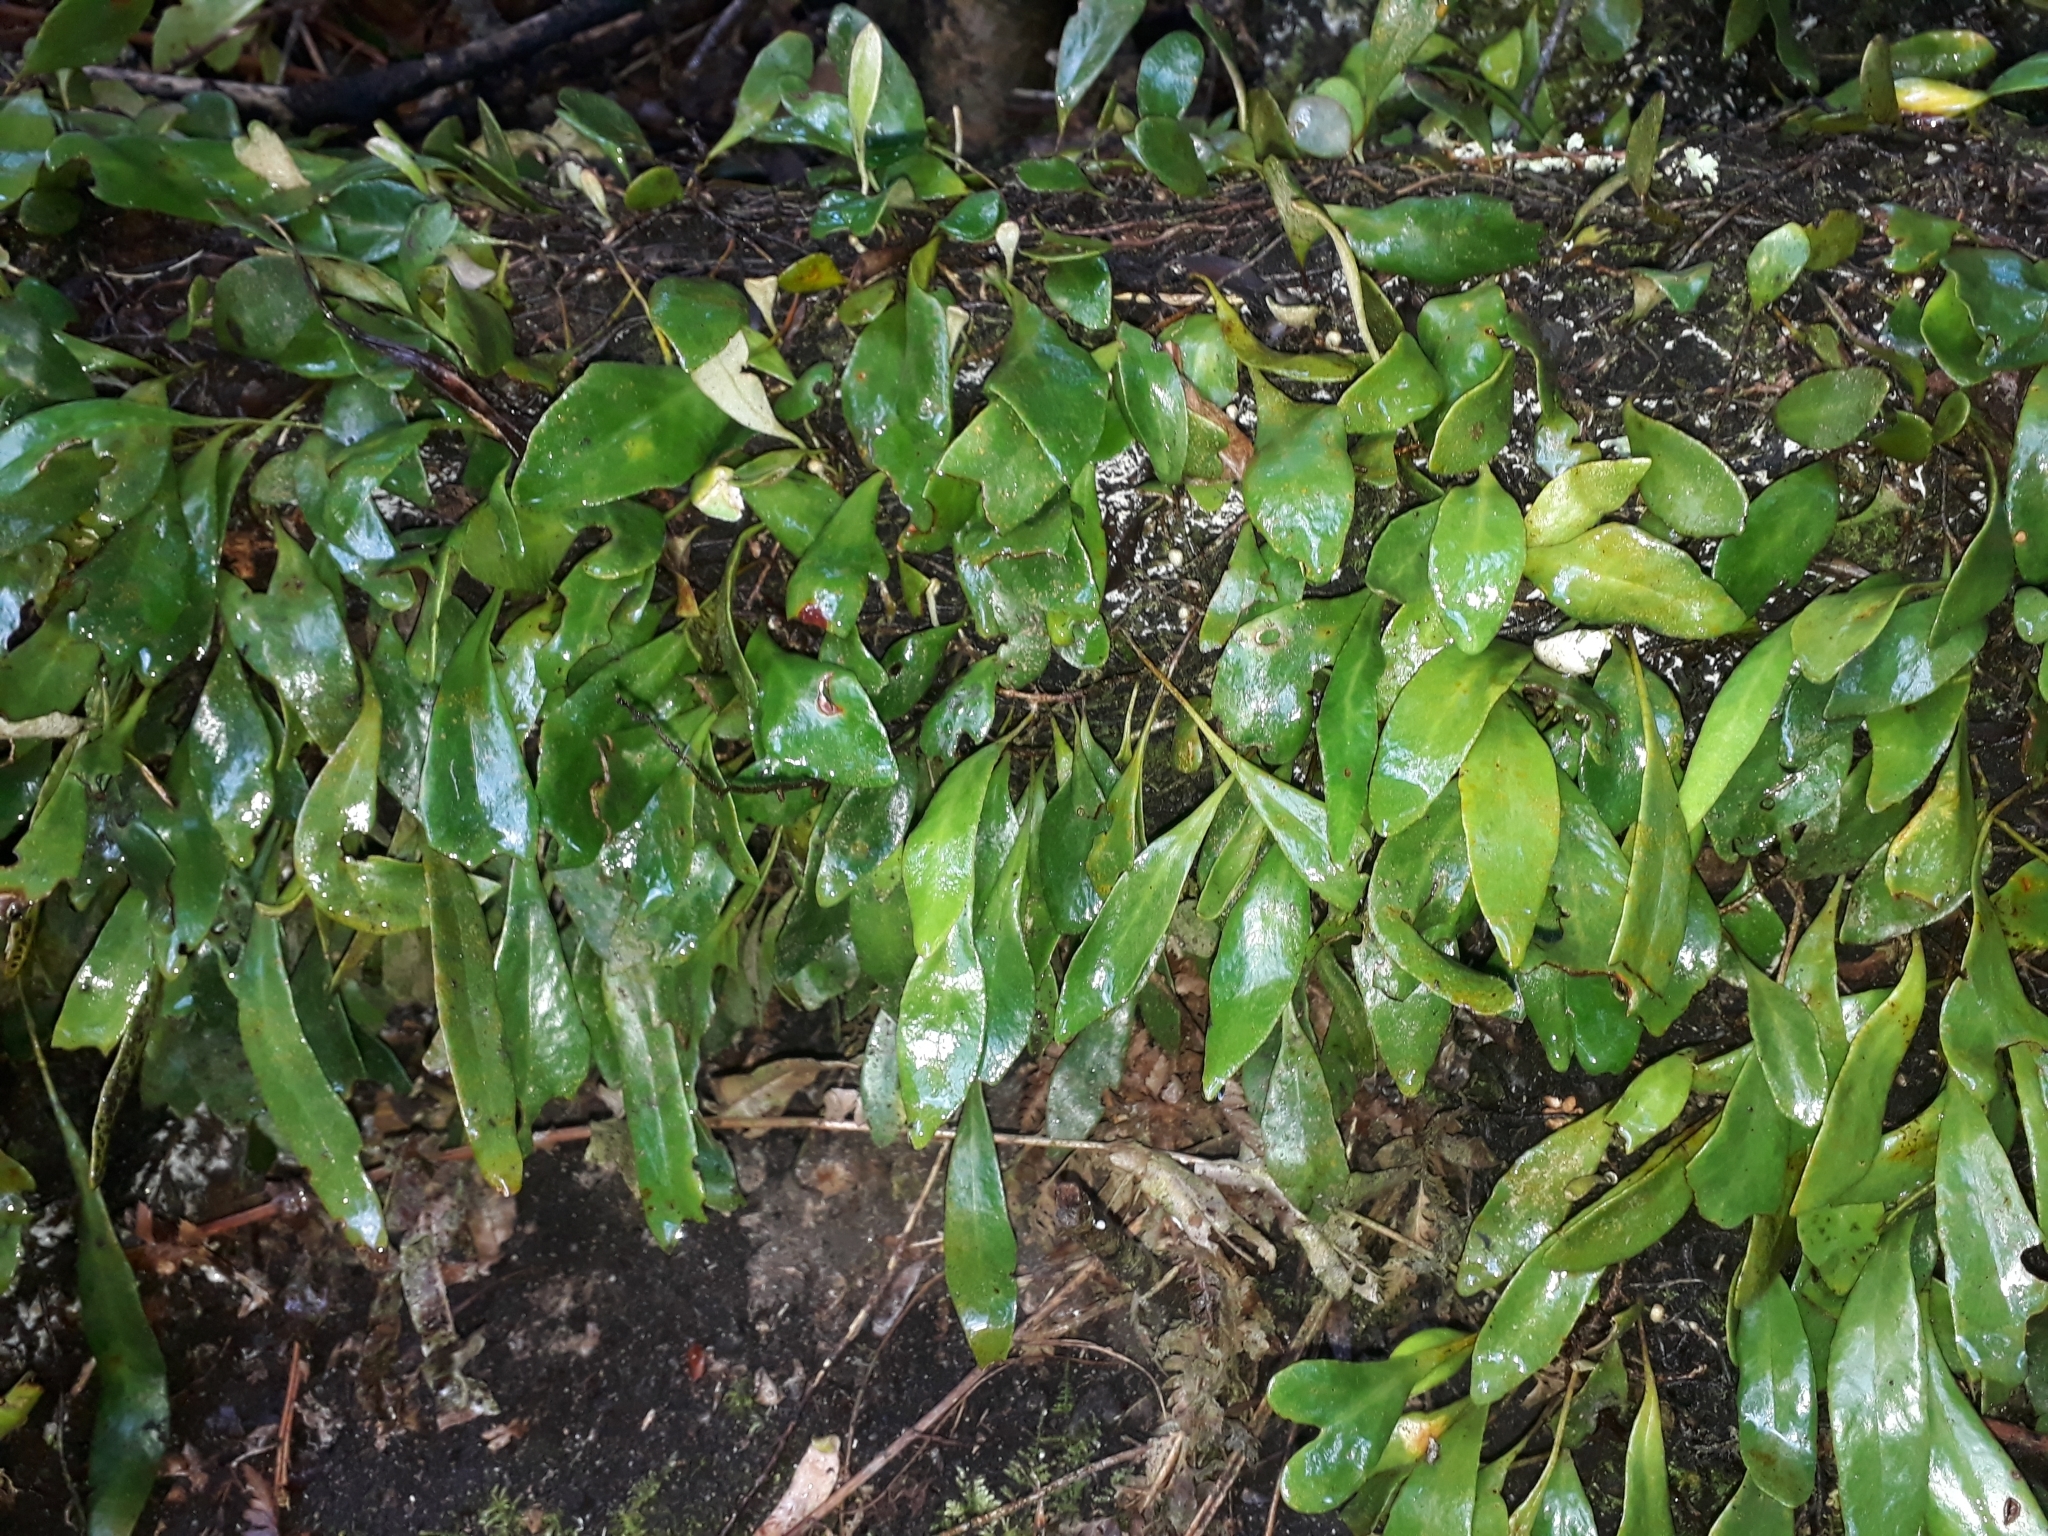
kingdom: Plantae
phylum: Tracheophyta
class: Polypodiopsida
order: Polypodiales
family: Polypodiaceae
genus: Pyrrosia
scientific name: Pyrrosia eleagnifolia
